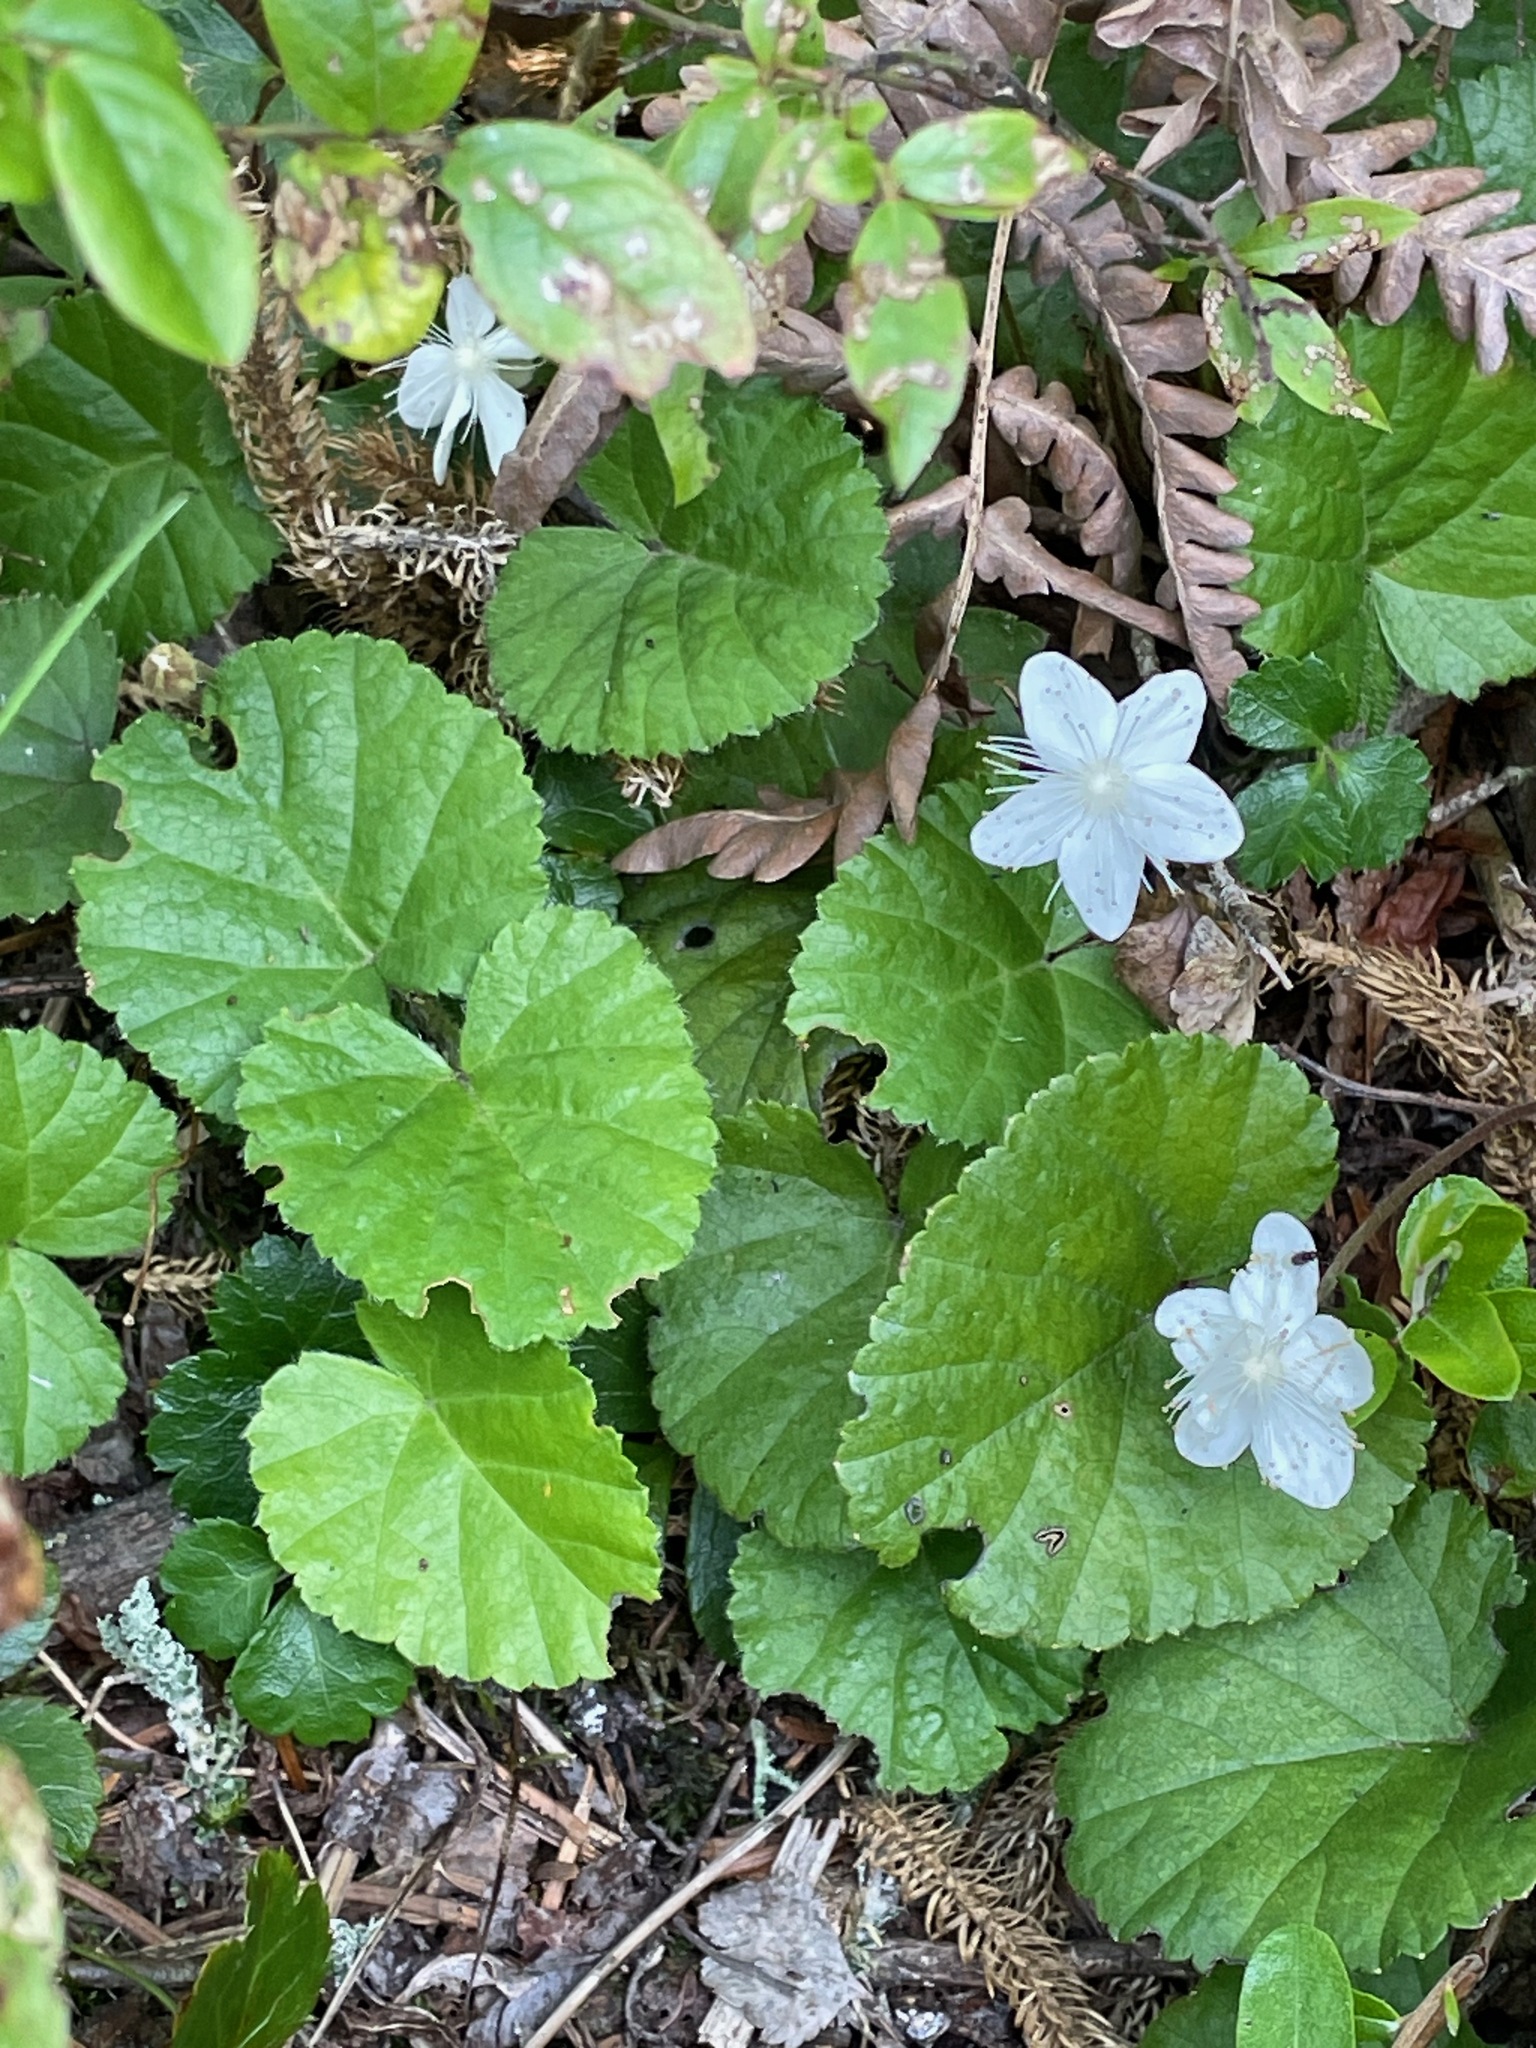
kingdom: Plantae
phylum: Tracheophyta
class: Magnoliopsida
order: Rosales
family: Rosaceae
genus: Dalibarda
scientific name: Dalibarda repens
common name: Dewdrop
